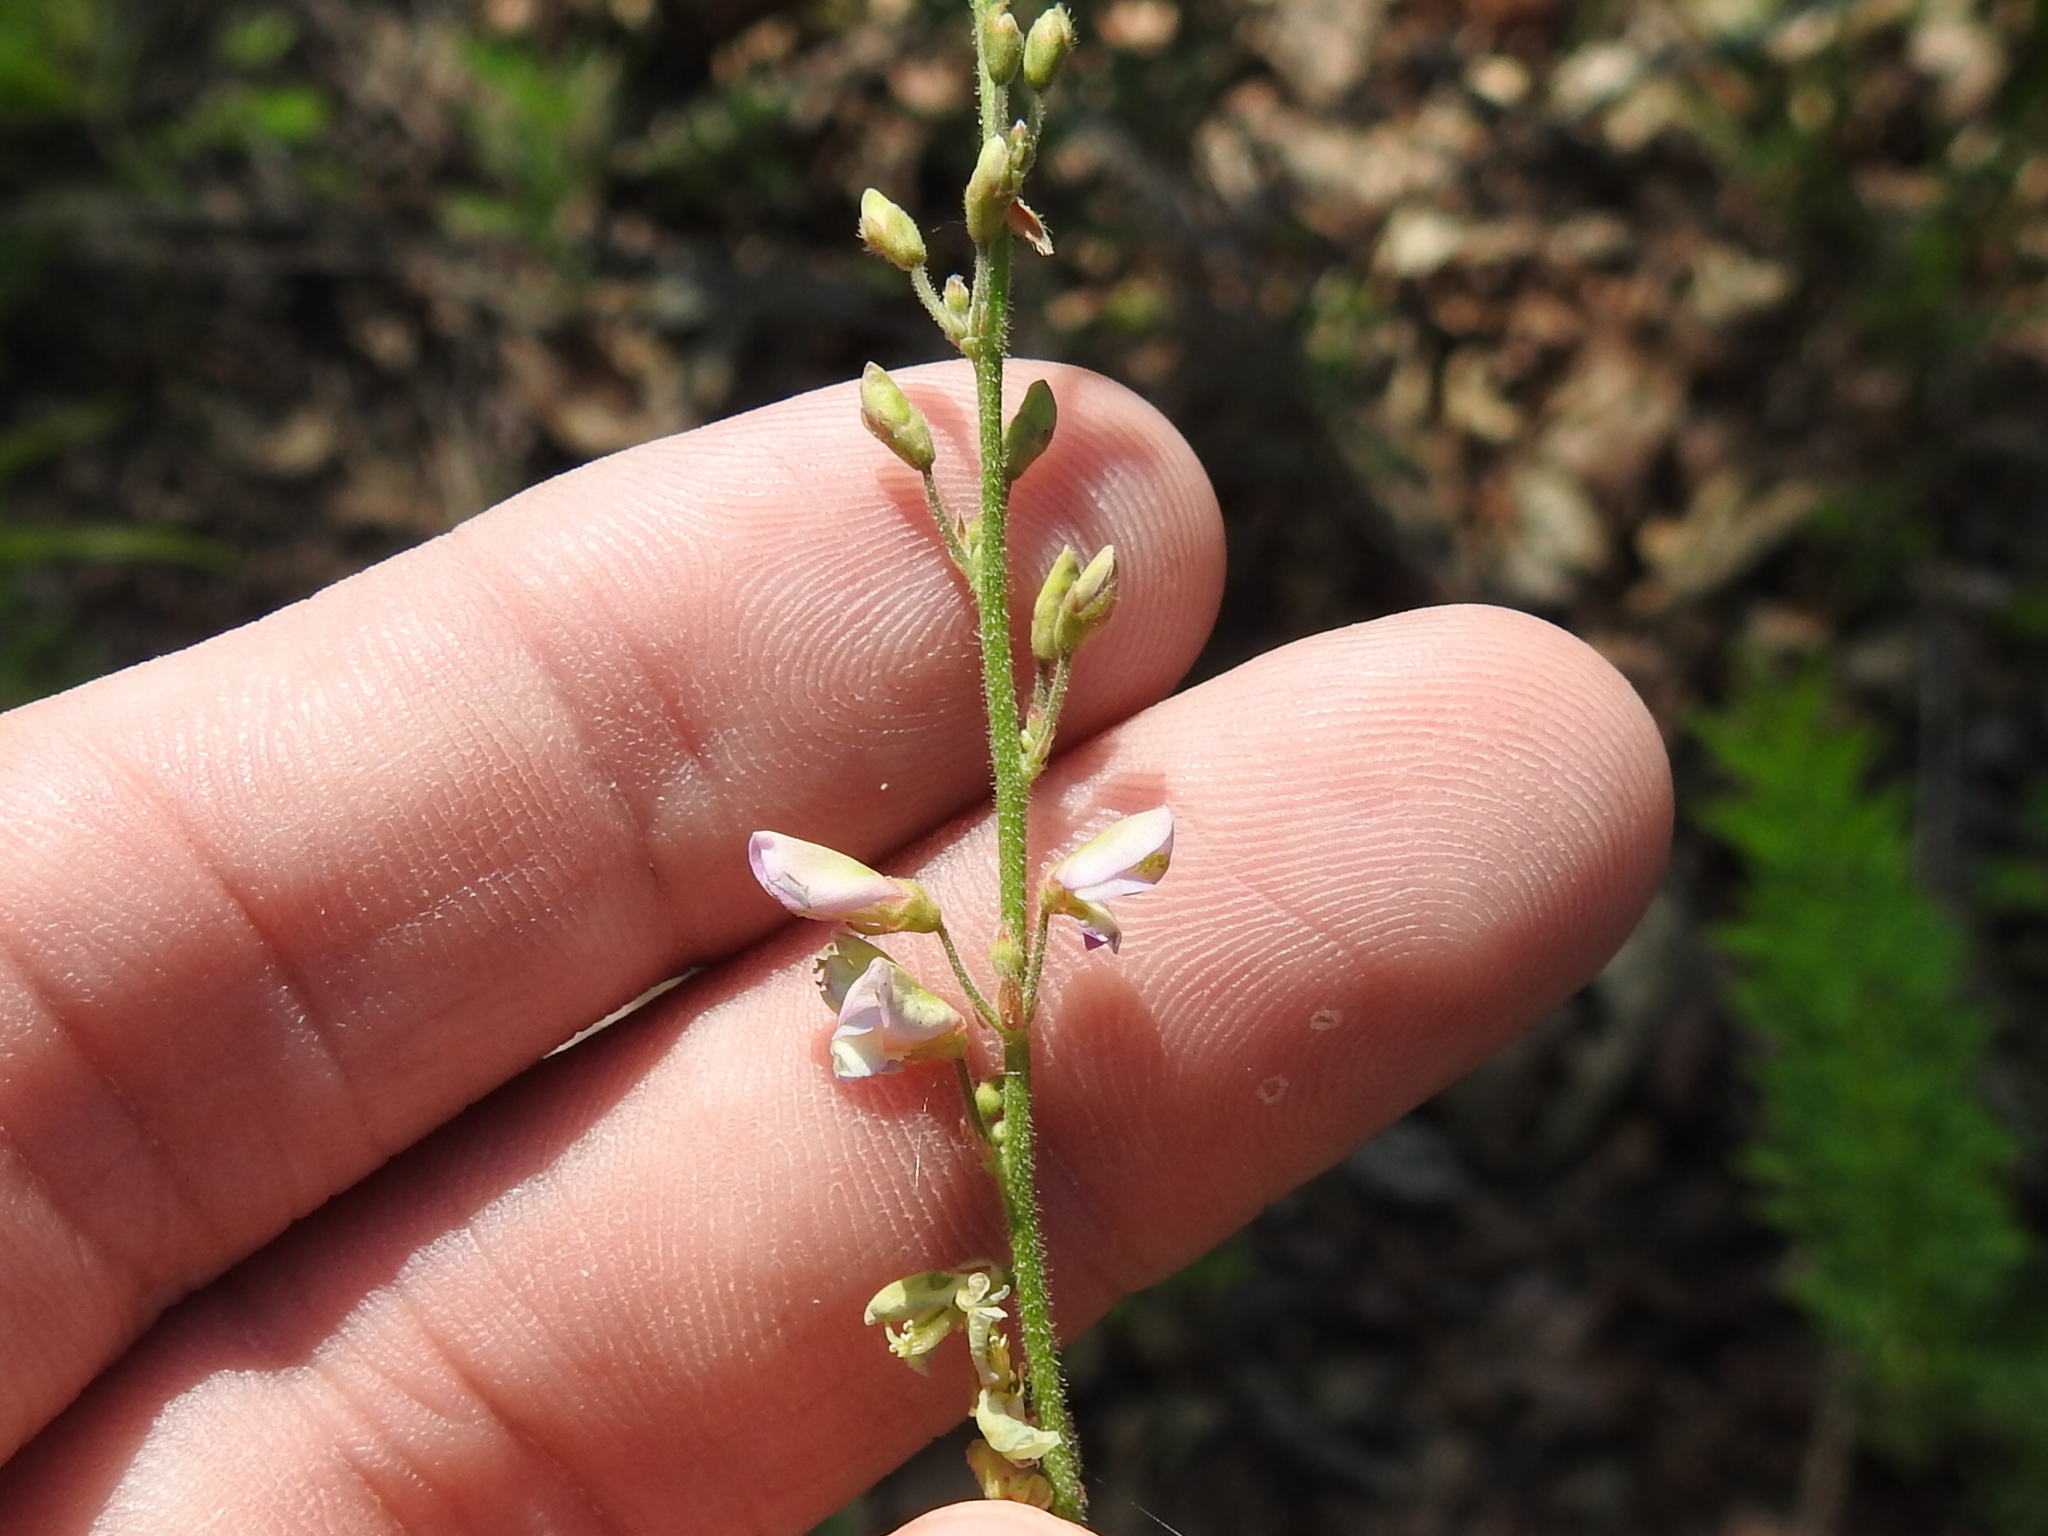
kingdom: Plantae
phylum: Tracheophyta
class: Magnoliopsida
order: Fabales
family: Fabaceae
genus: Desmodium
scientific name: Desmodium sessilifolium
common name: Sessile tick-clover
